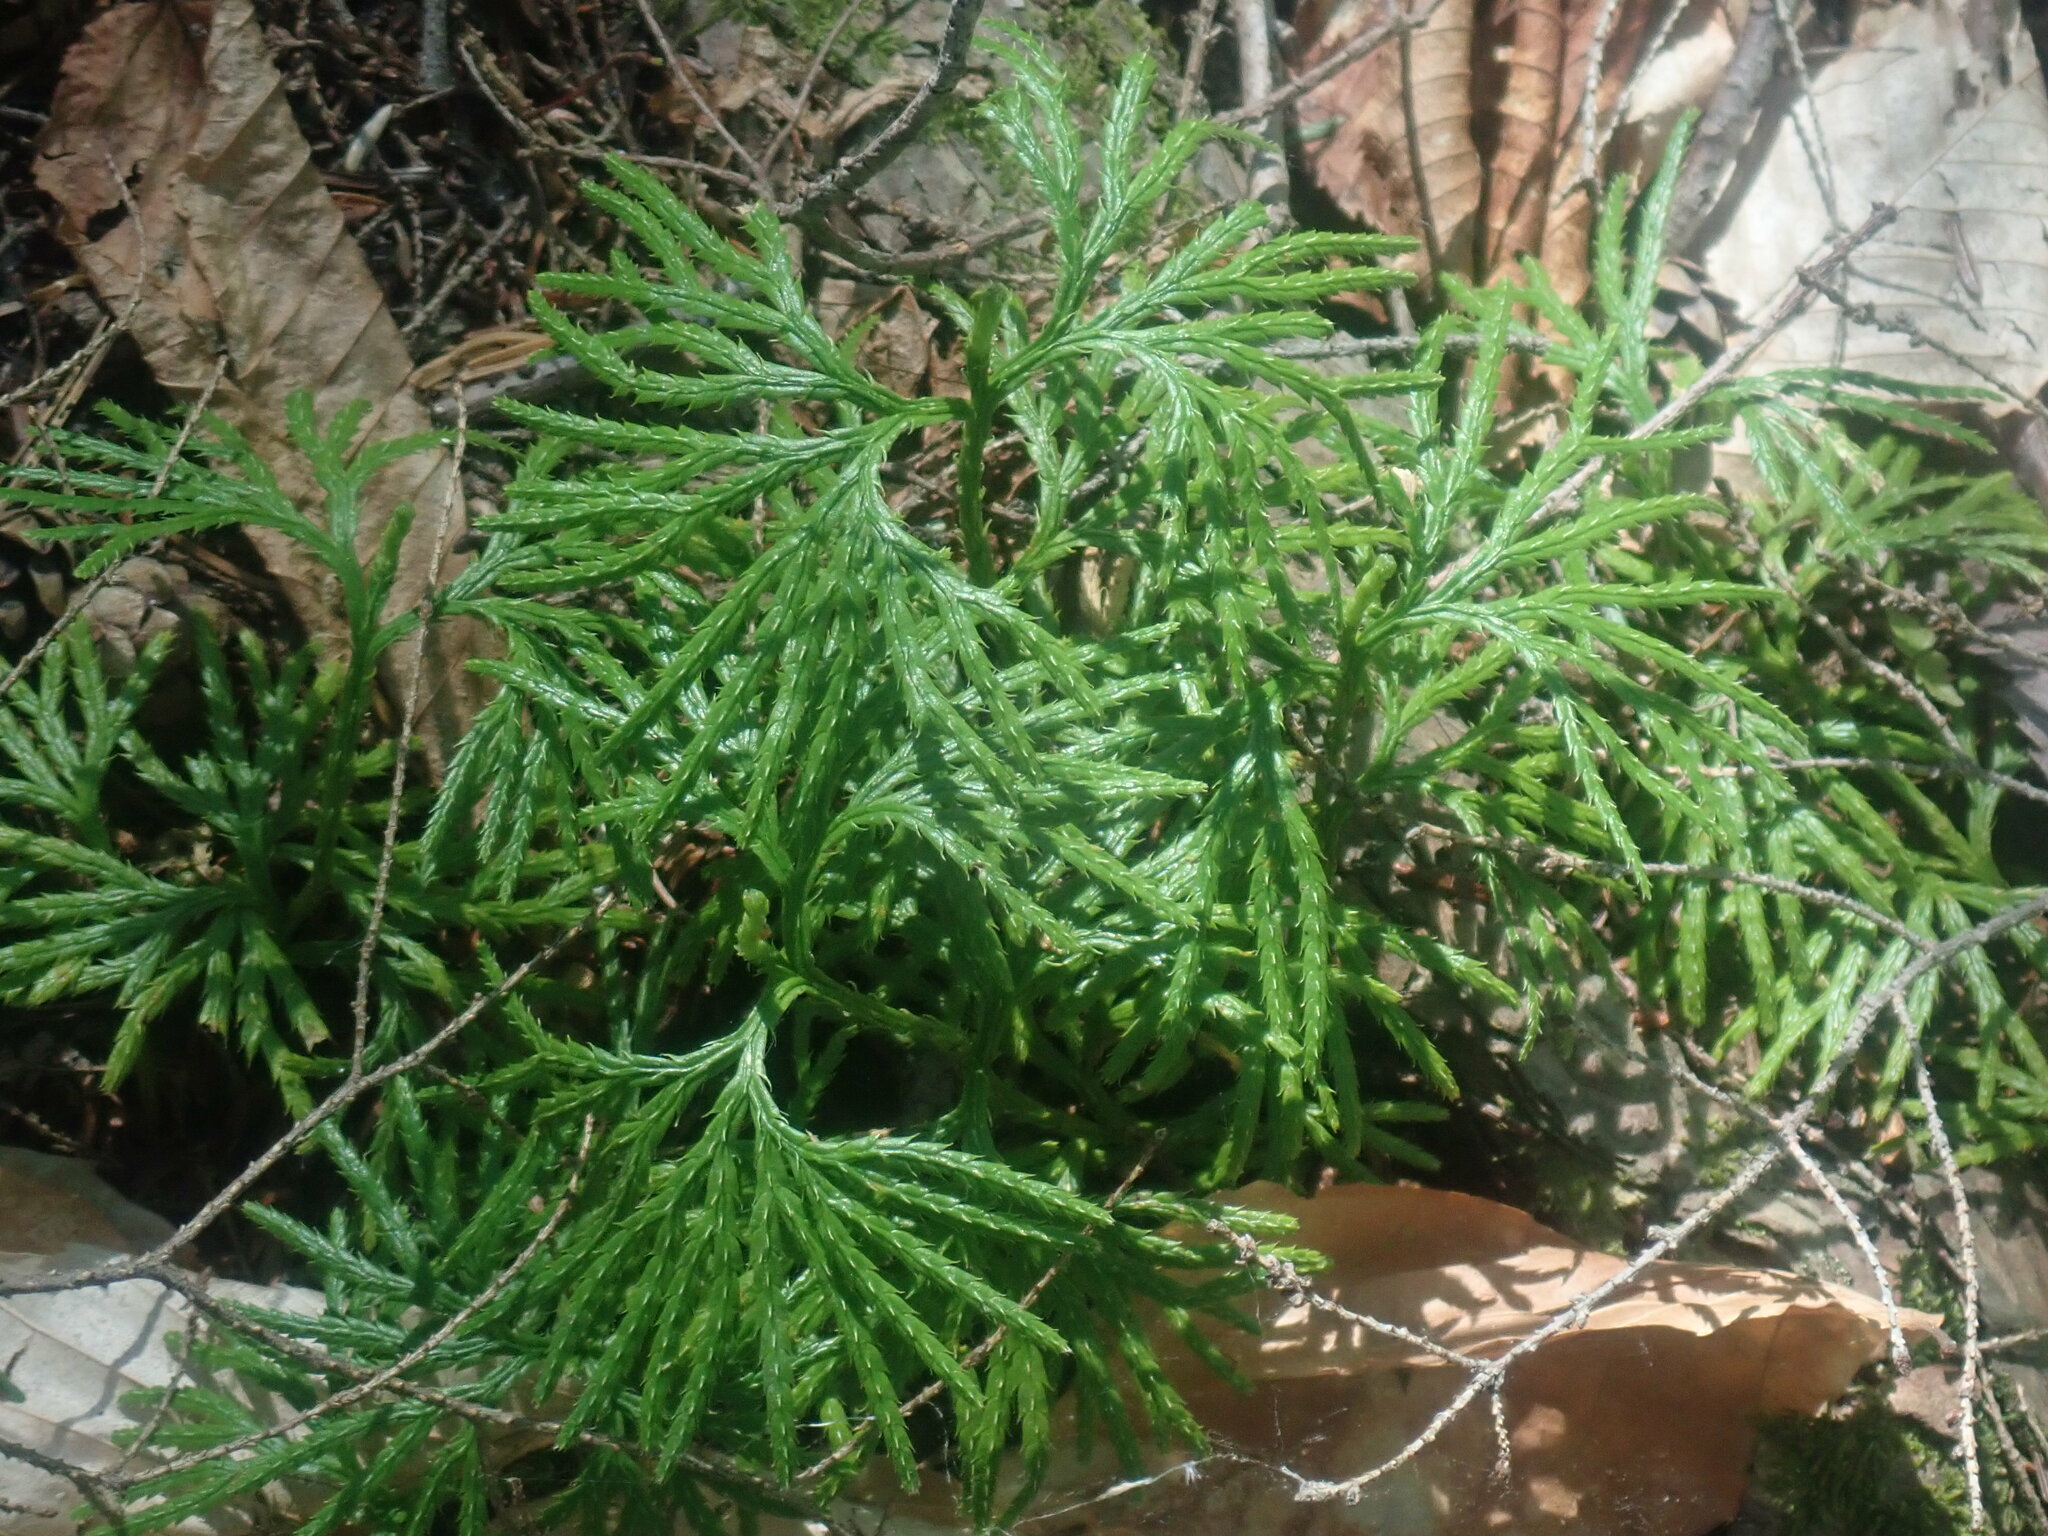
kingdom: Plantae
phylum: Tracheophyta
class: Lycopodiopsida
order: Lycopodiales
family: Lycopodiaceae
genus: Diphasiastrum
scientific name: Diphasiastrum digitatum
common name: Southern running-pine
